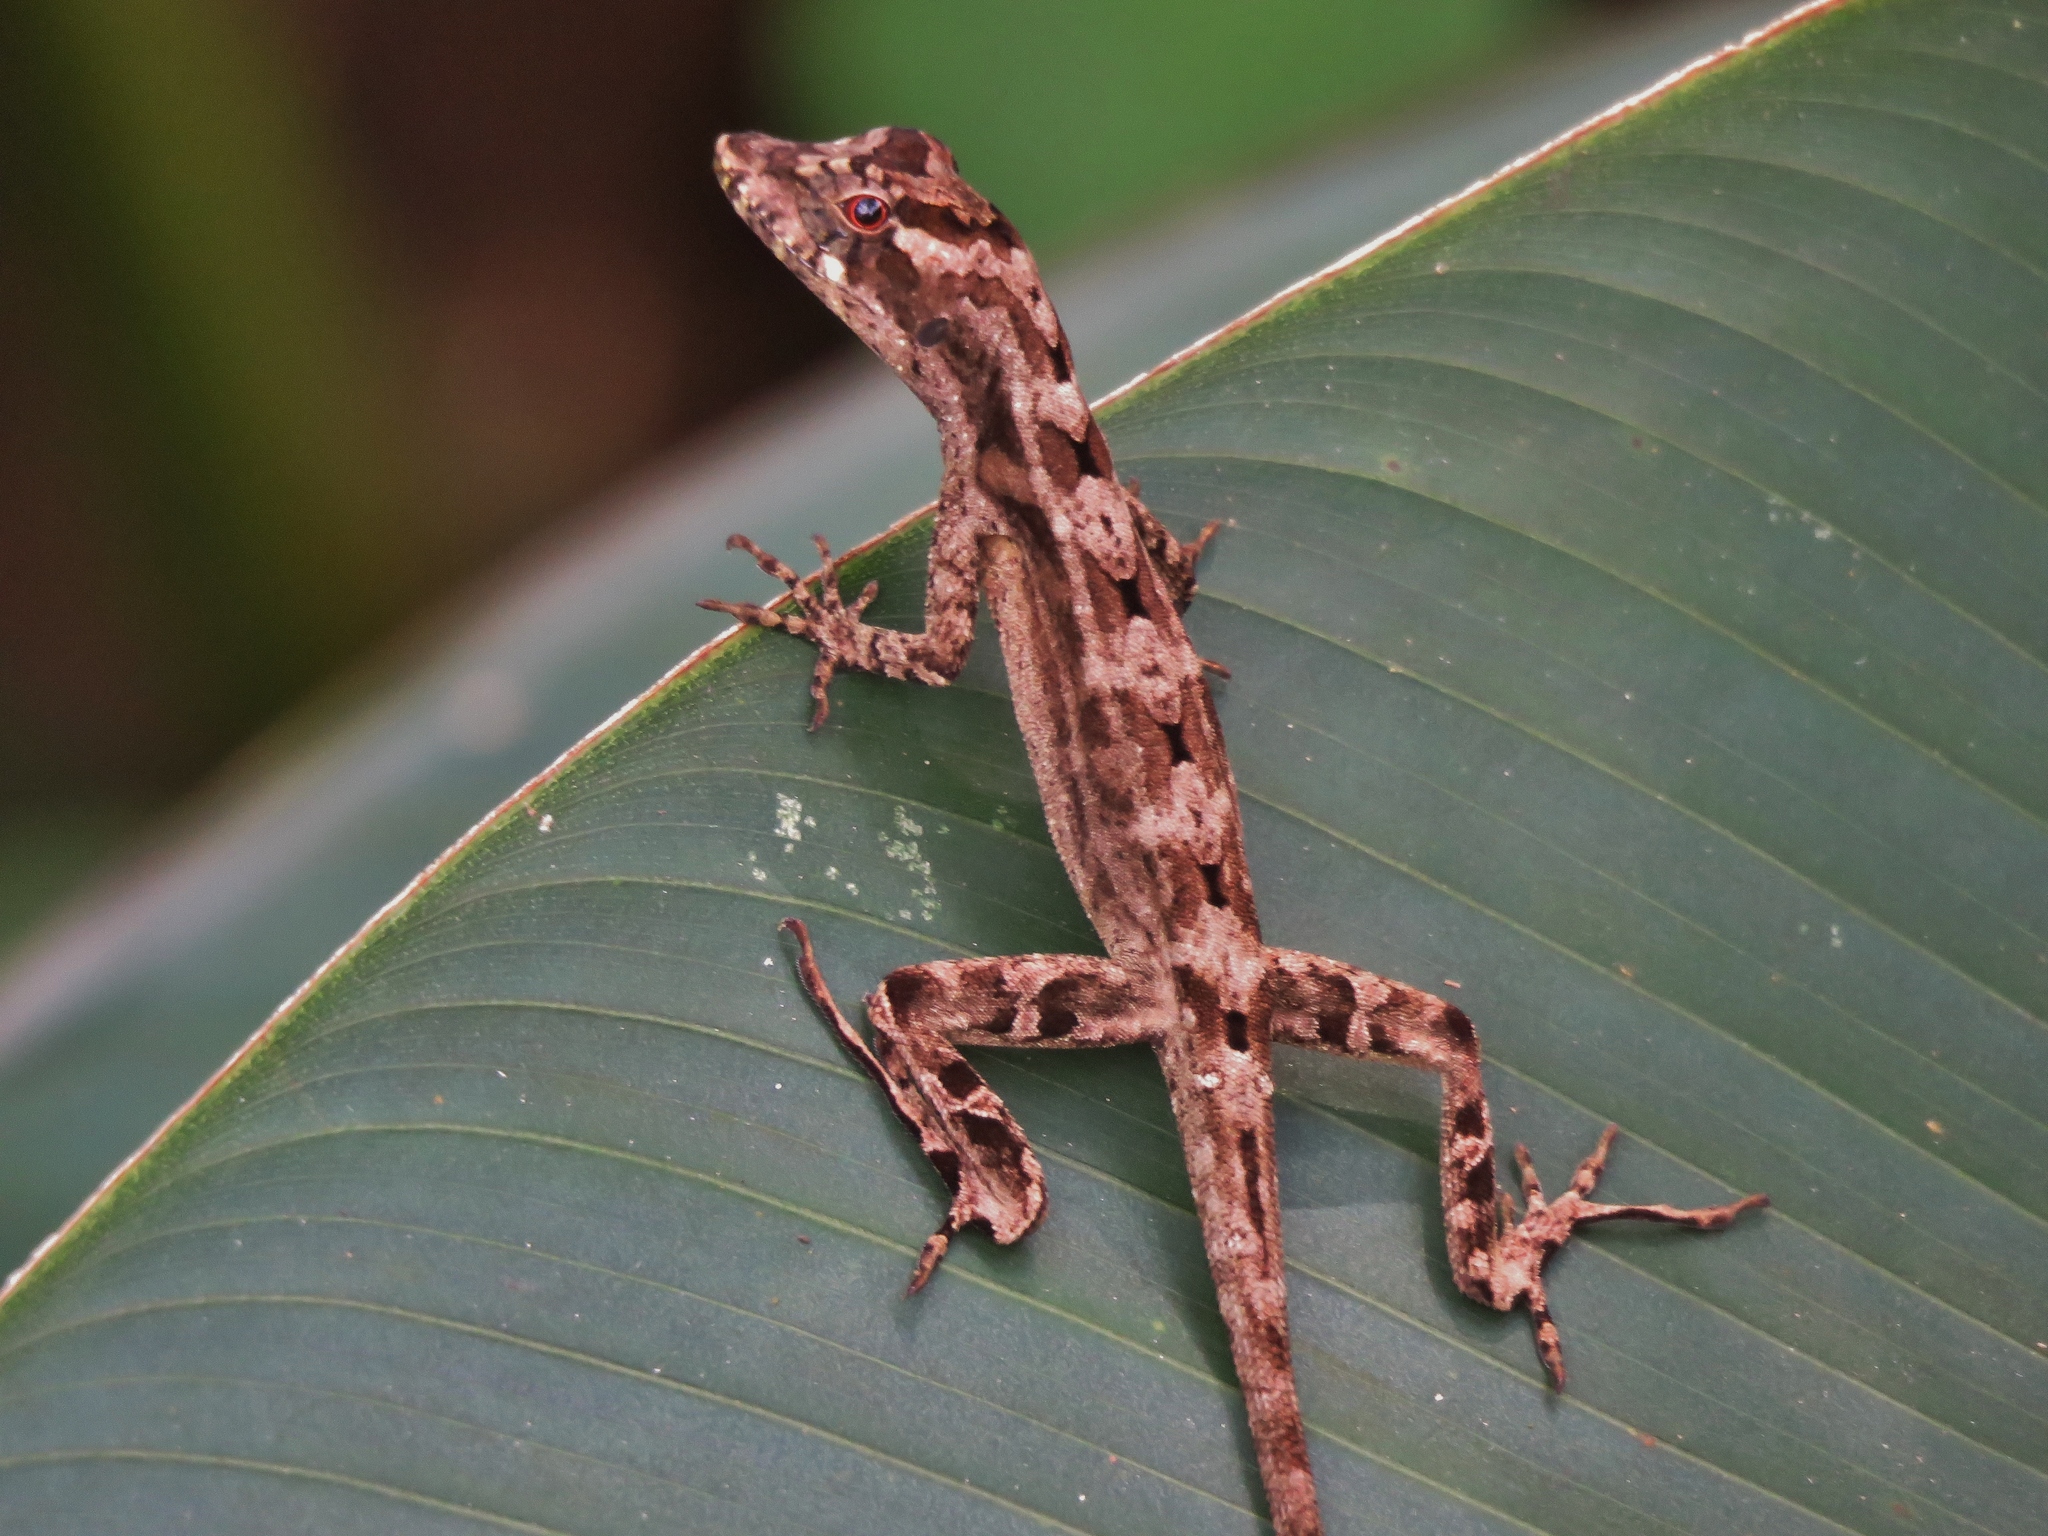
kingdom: Animalia
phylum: Chordata
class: Squamata
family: Dactyloidae
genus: Anolis
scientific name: Anolis lemurinus
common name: Ghost anole
